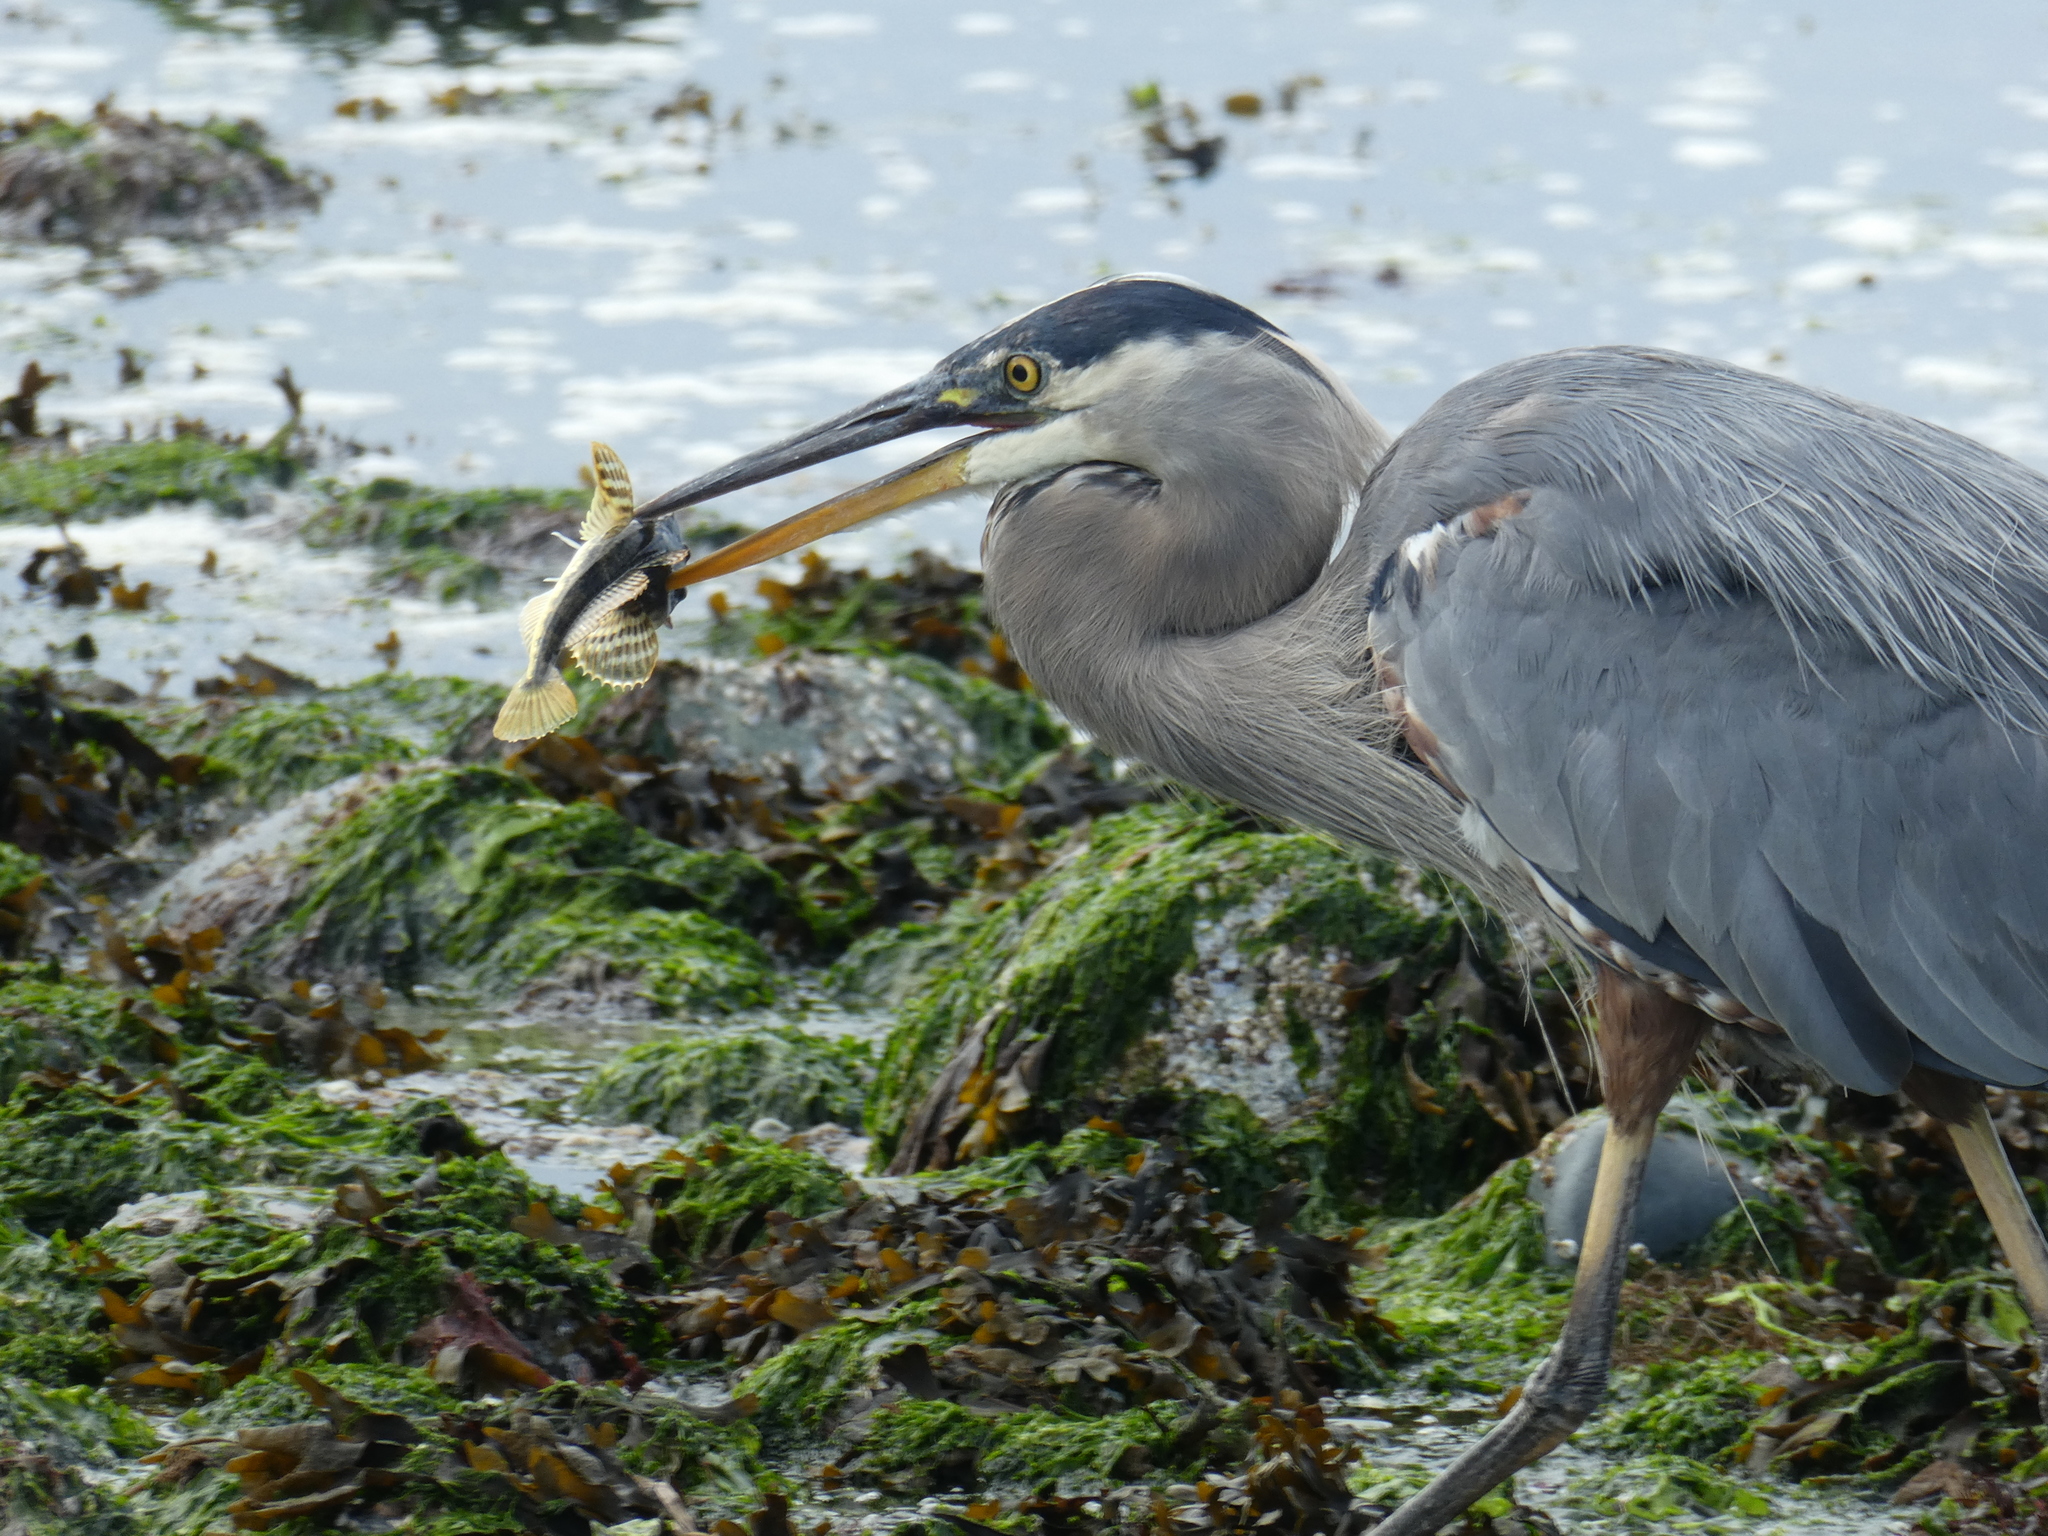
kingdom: Animalia
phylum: Chordata
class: Aves
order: Pelecaniformes
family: Ardeidae
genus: Ardea
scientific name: Ardea herodias
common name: Great blue heron
